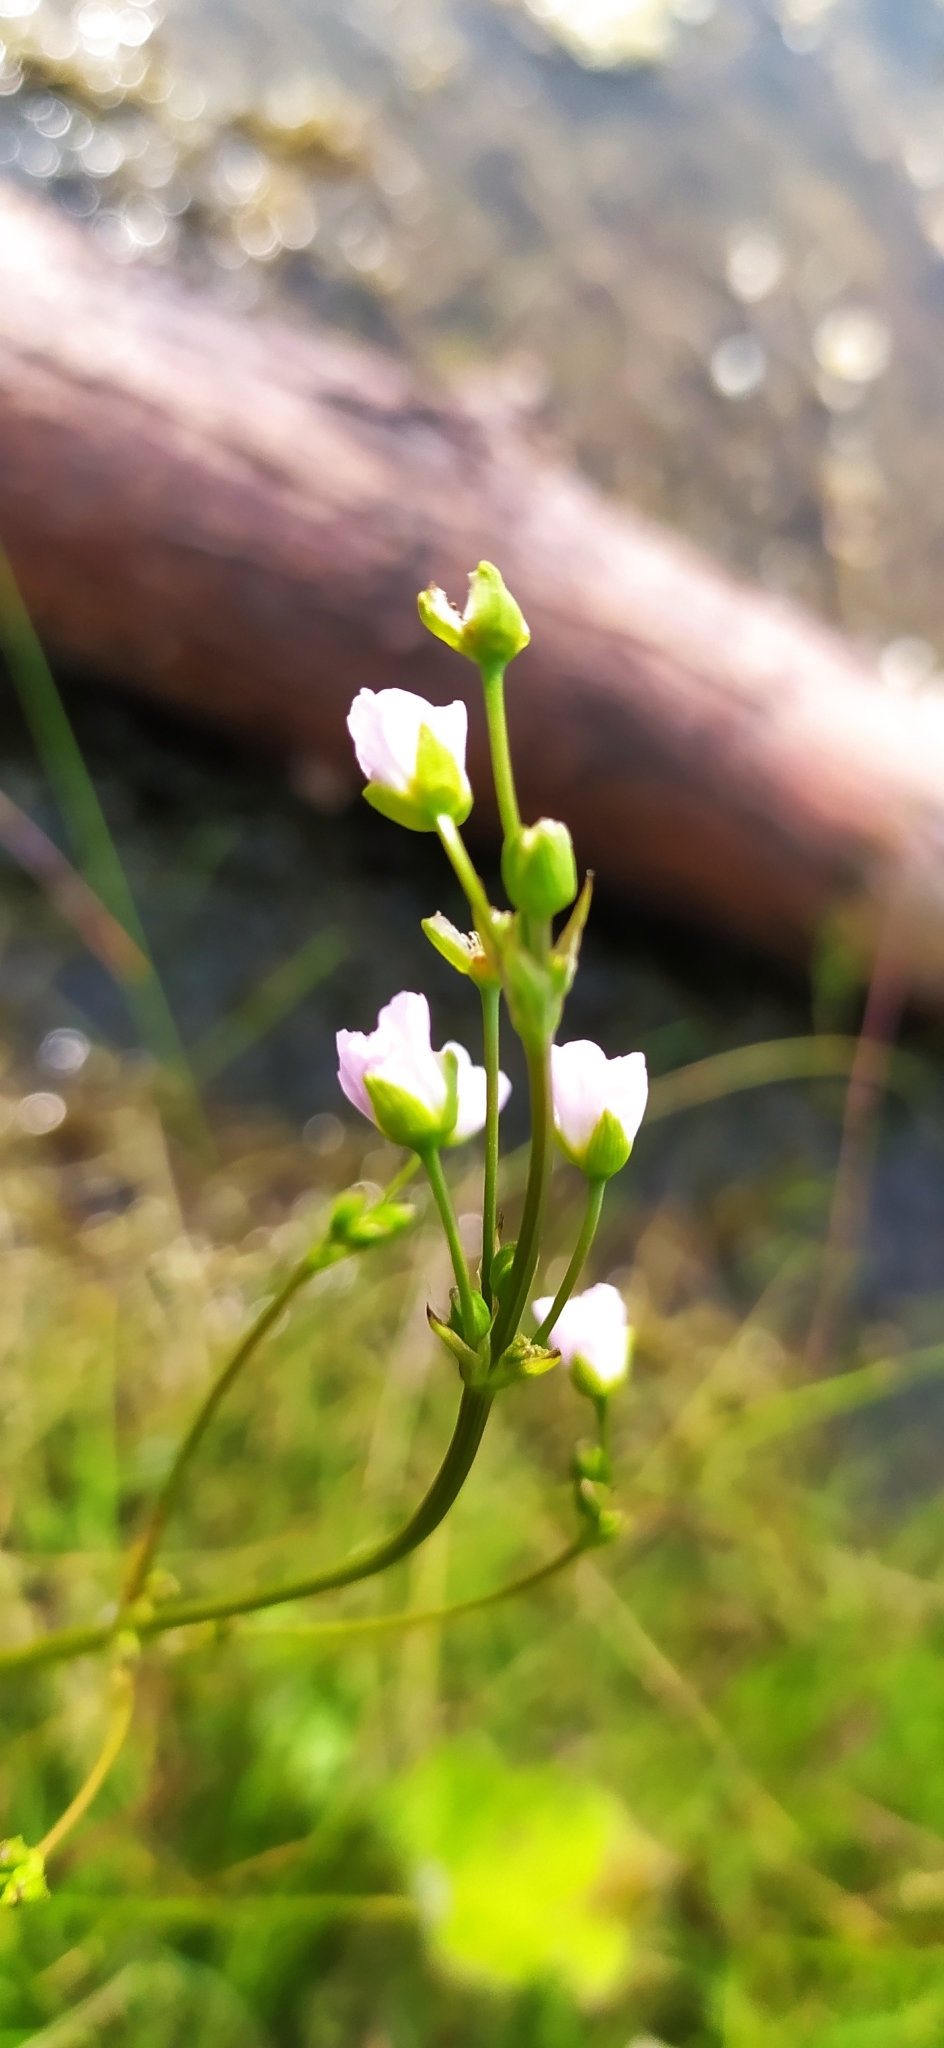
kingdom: Plantae
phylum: Tracheophyta
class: Liliopsida
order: Alismatales
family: Alismataceae
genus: Alisma
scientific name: Alisma plantago-aquatica
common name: Water-plantain
